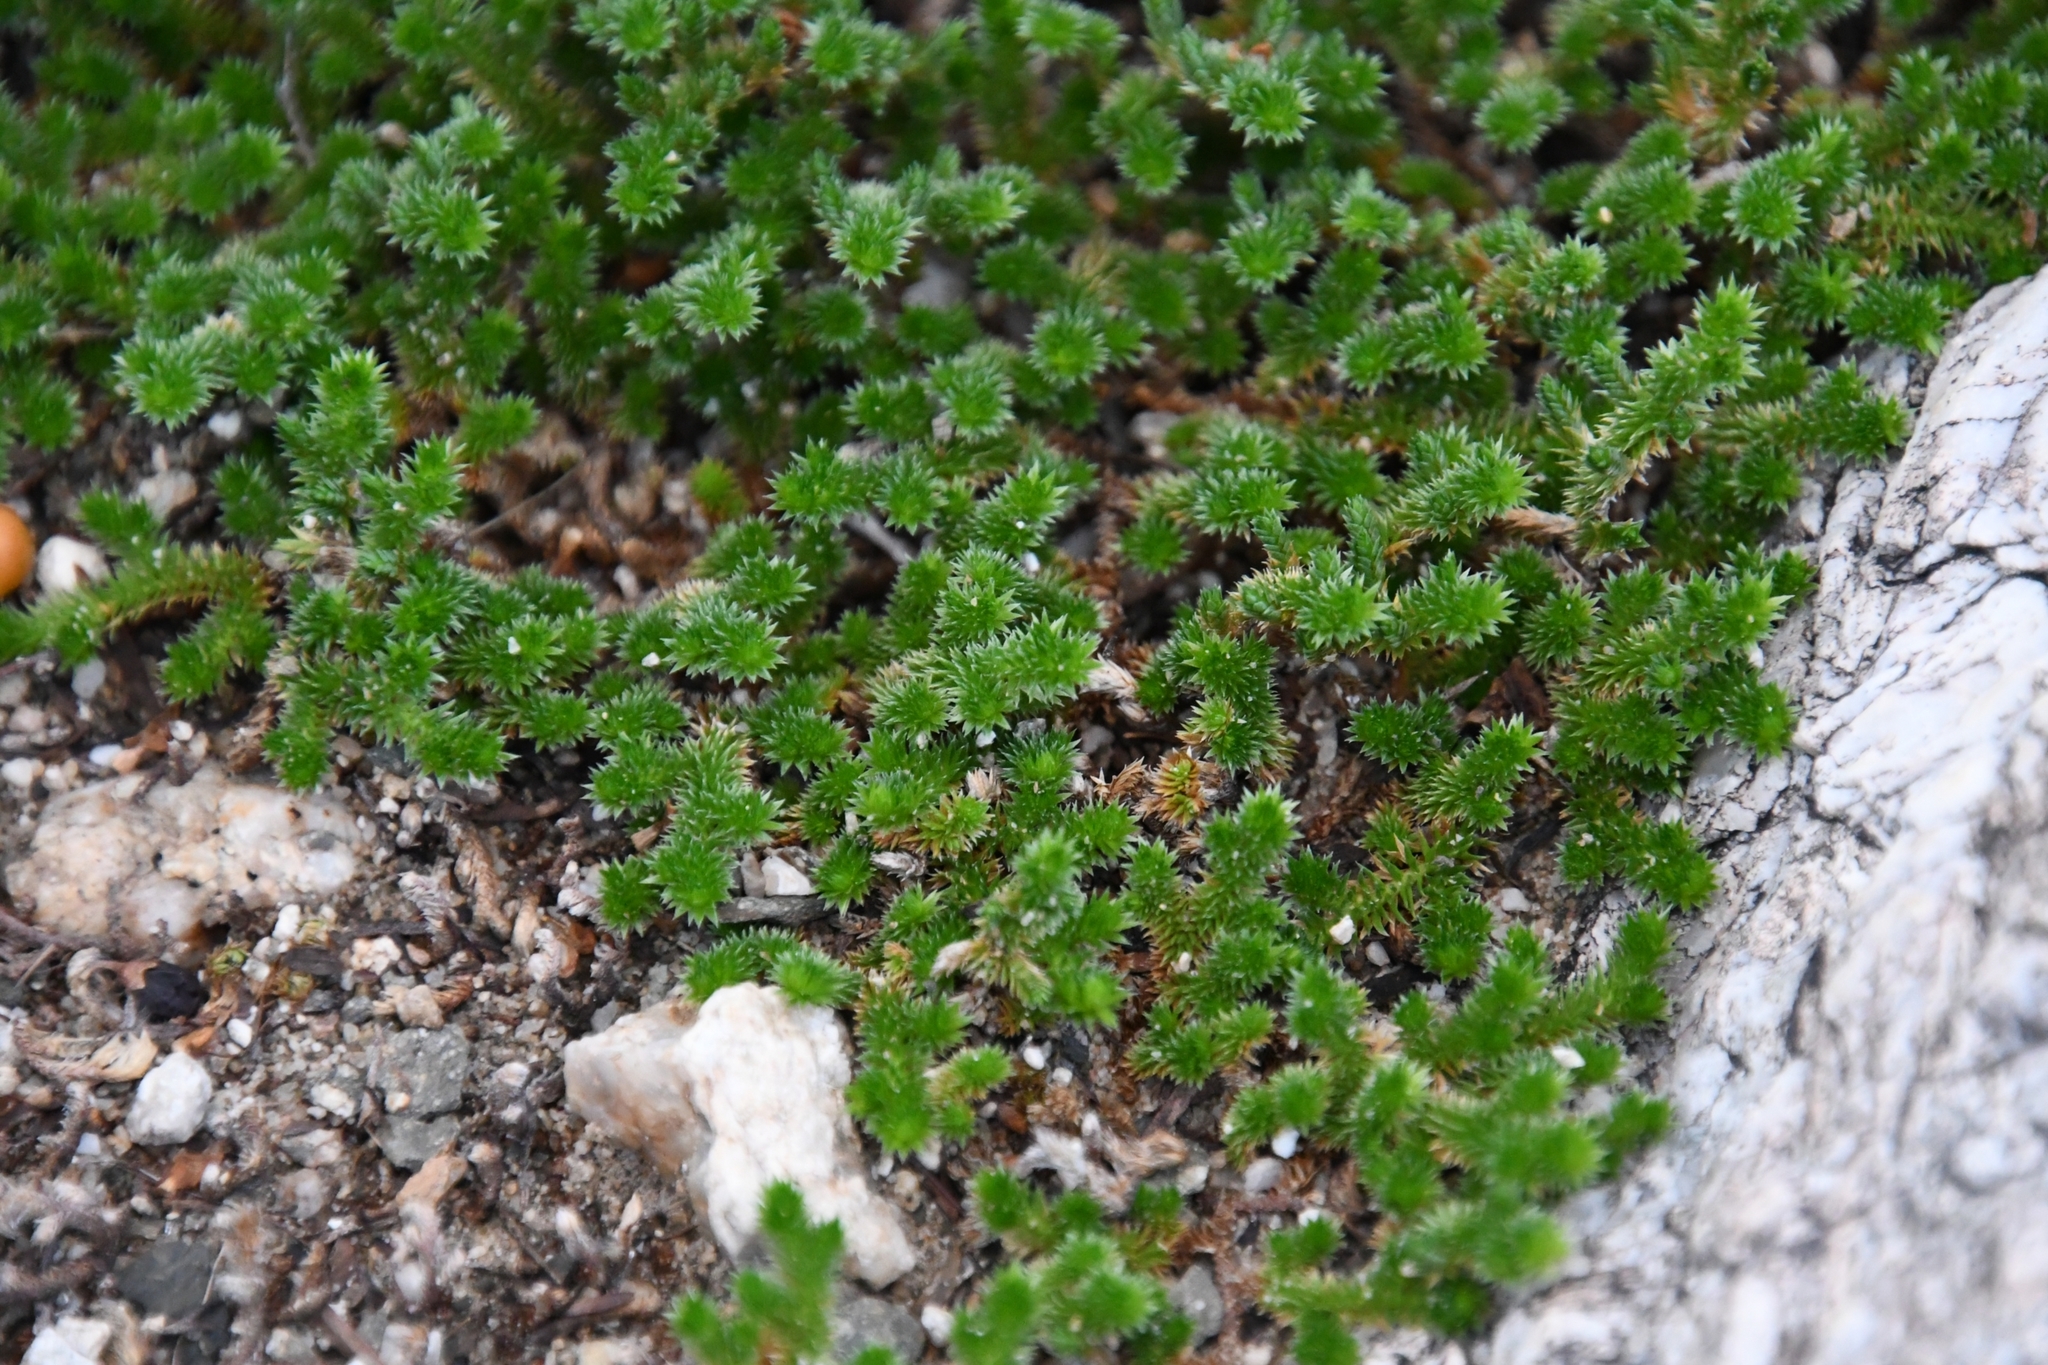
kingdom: Plantae
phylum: Tracheophyta
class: Lycopodiopsida
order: Selaginellales
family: Selaginellaceae
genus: Selaginella
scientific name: Selaginella arizonica
